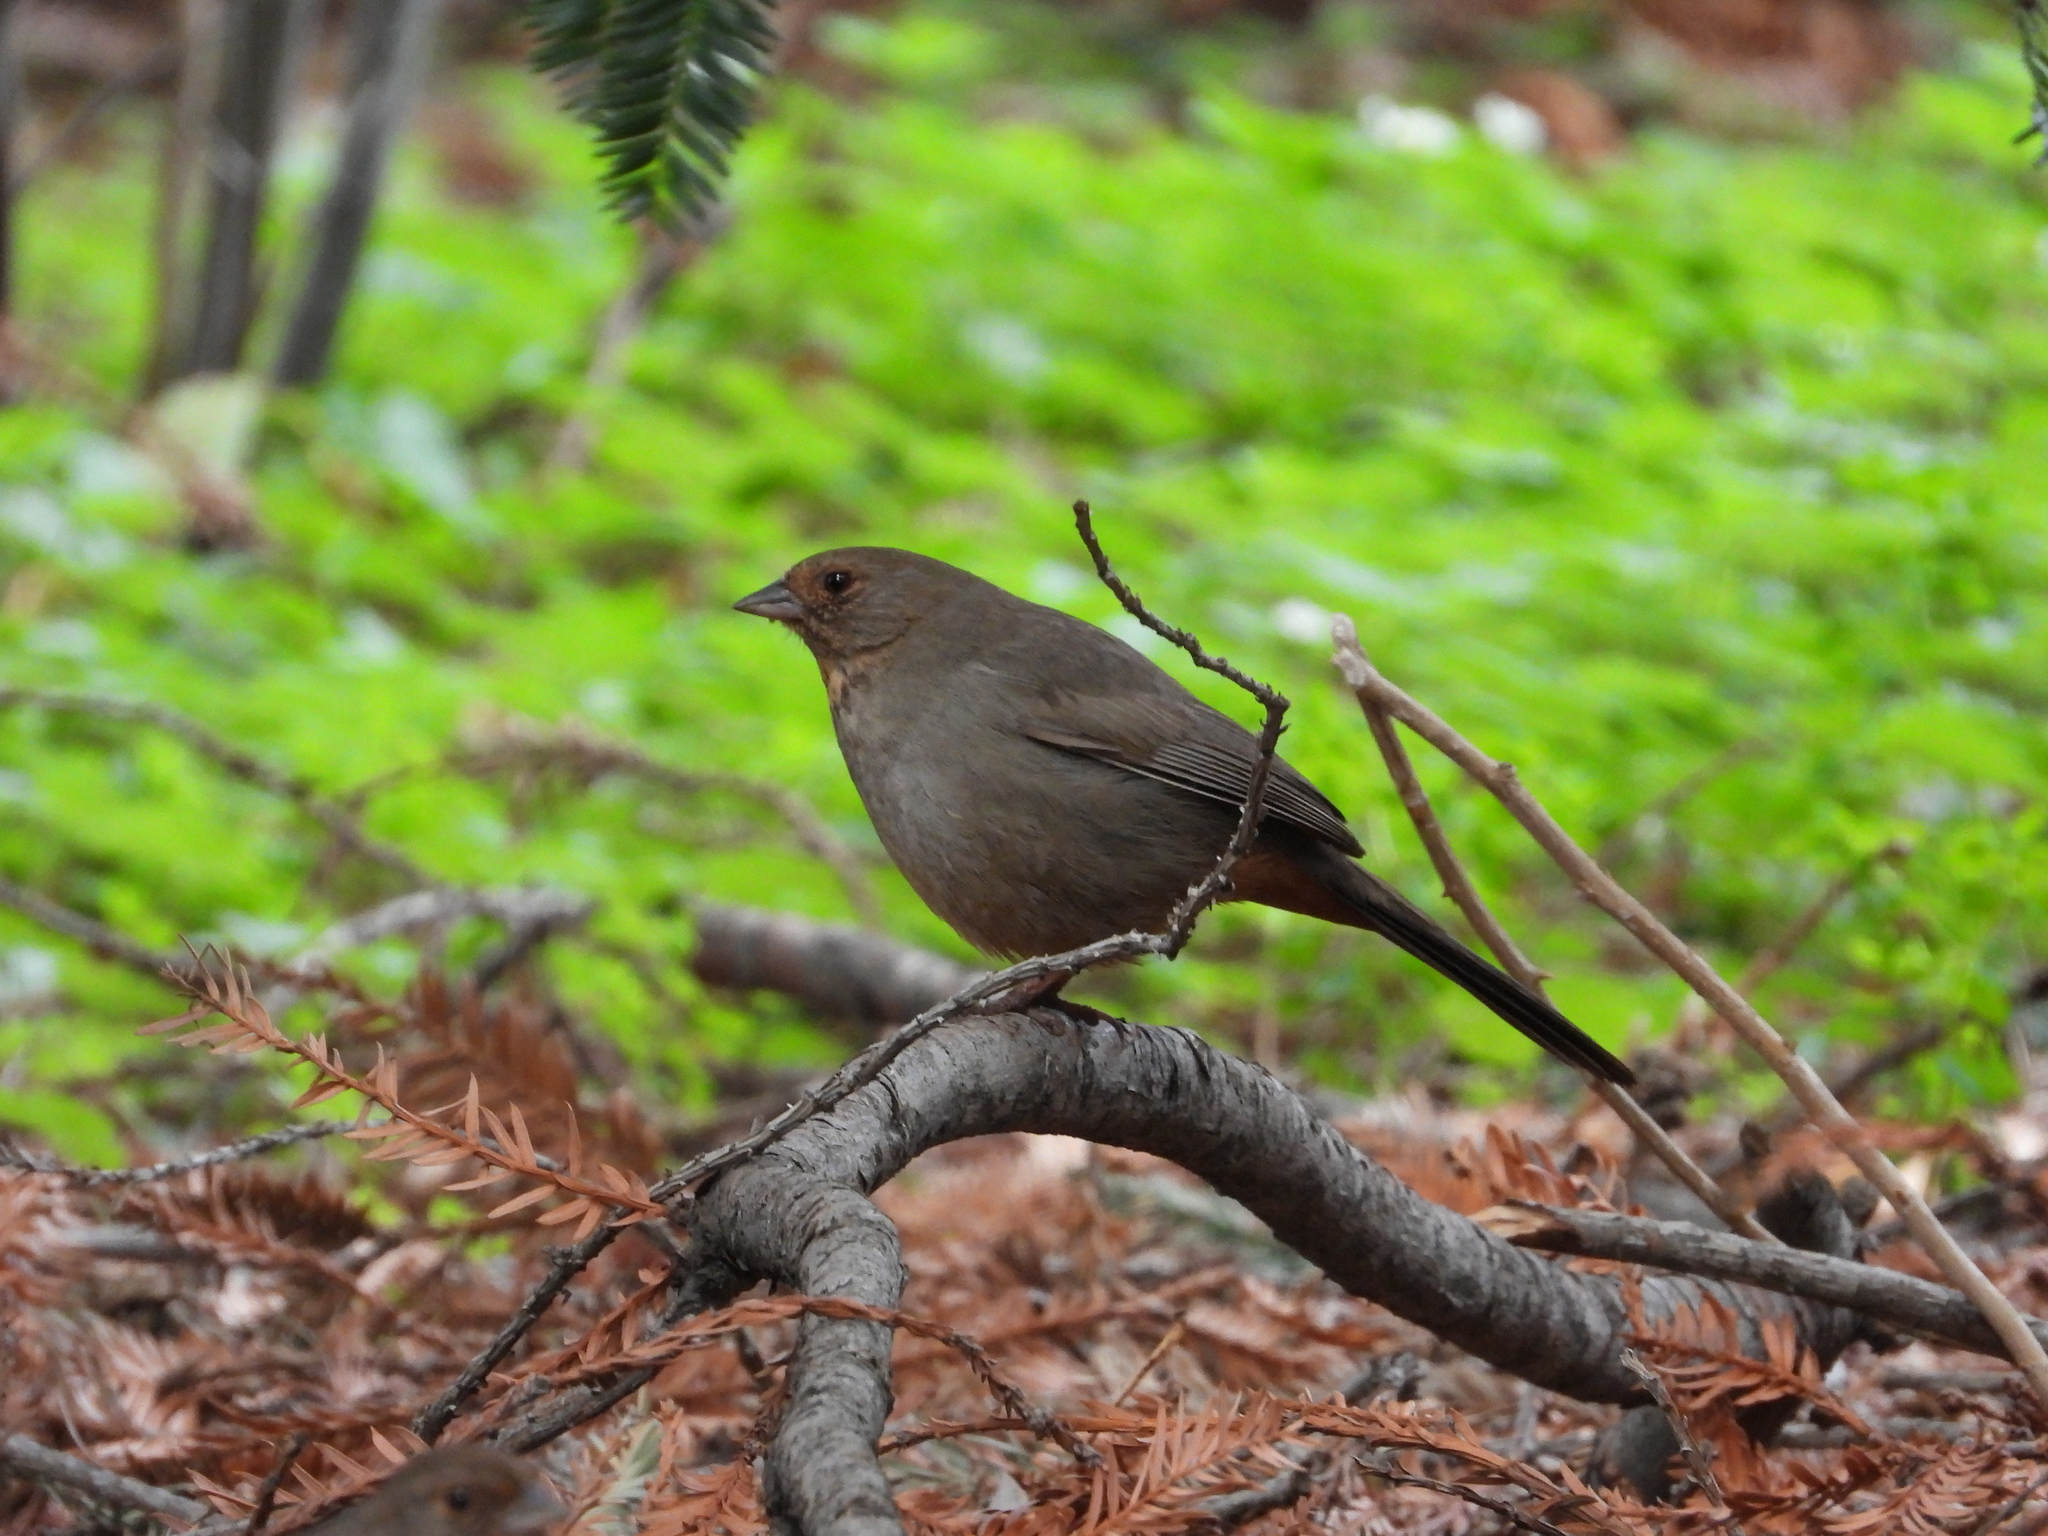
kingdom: Animalia
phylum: Chordata
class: Aves
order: Passeriformes
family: Passerellidae
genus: Melozone
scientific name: Melozone crissalis
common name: California towhee
